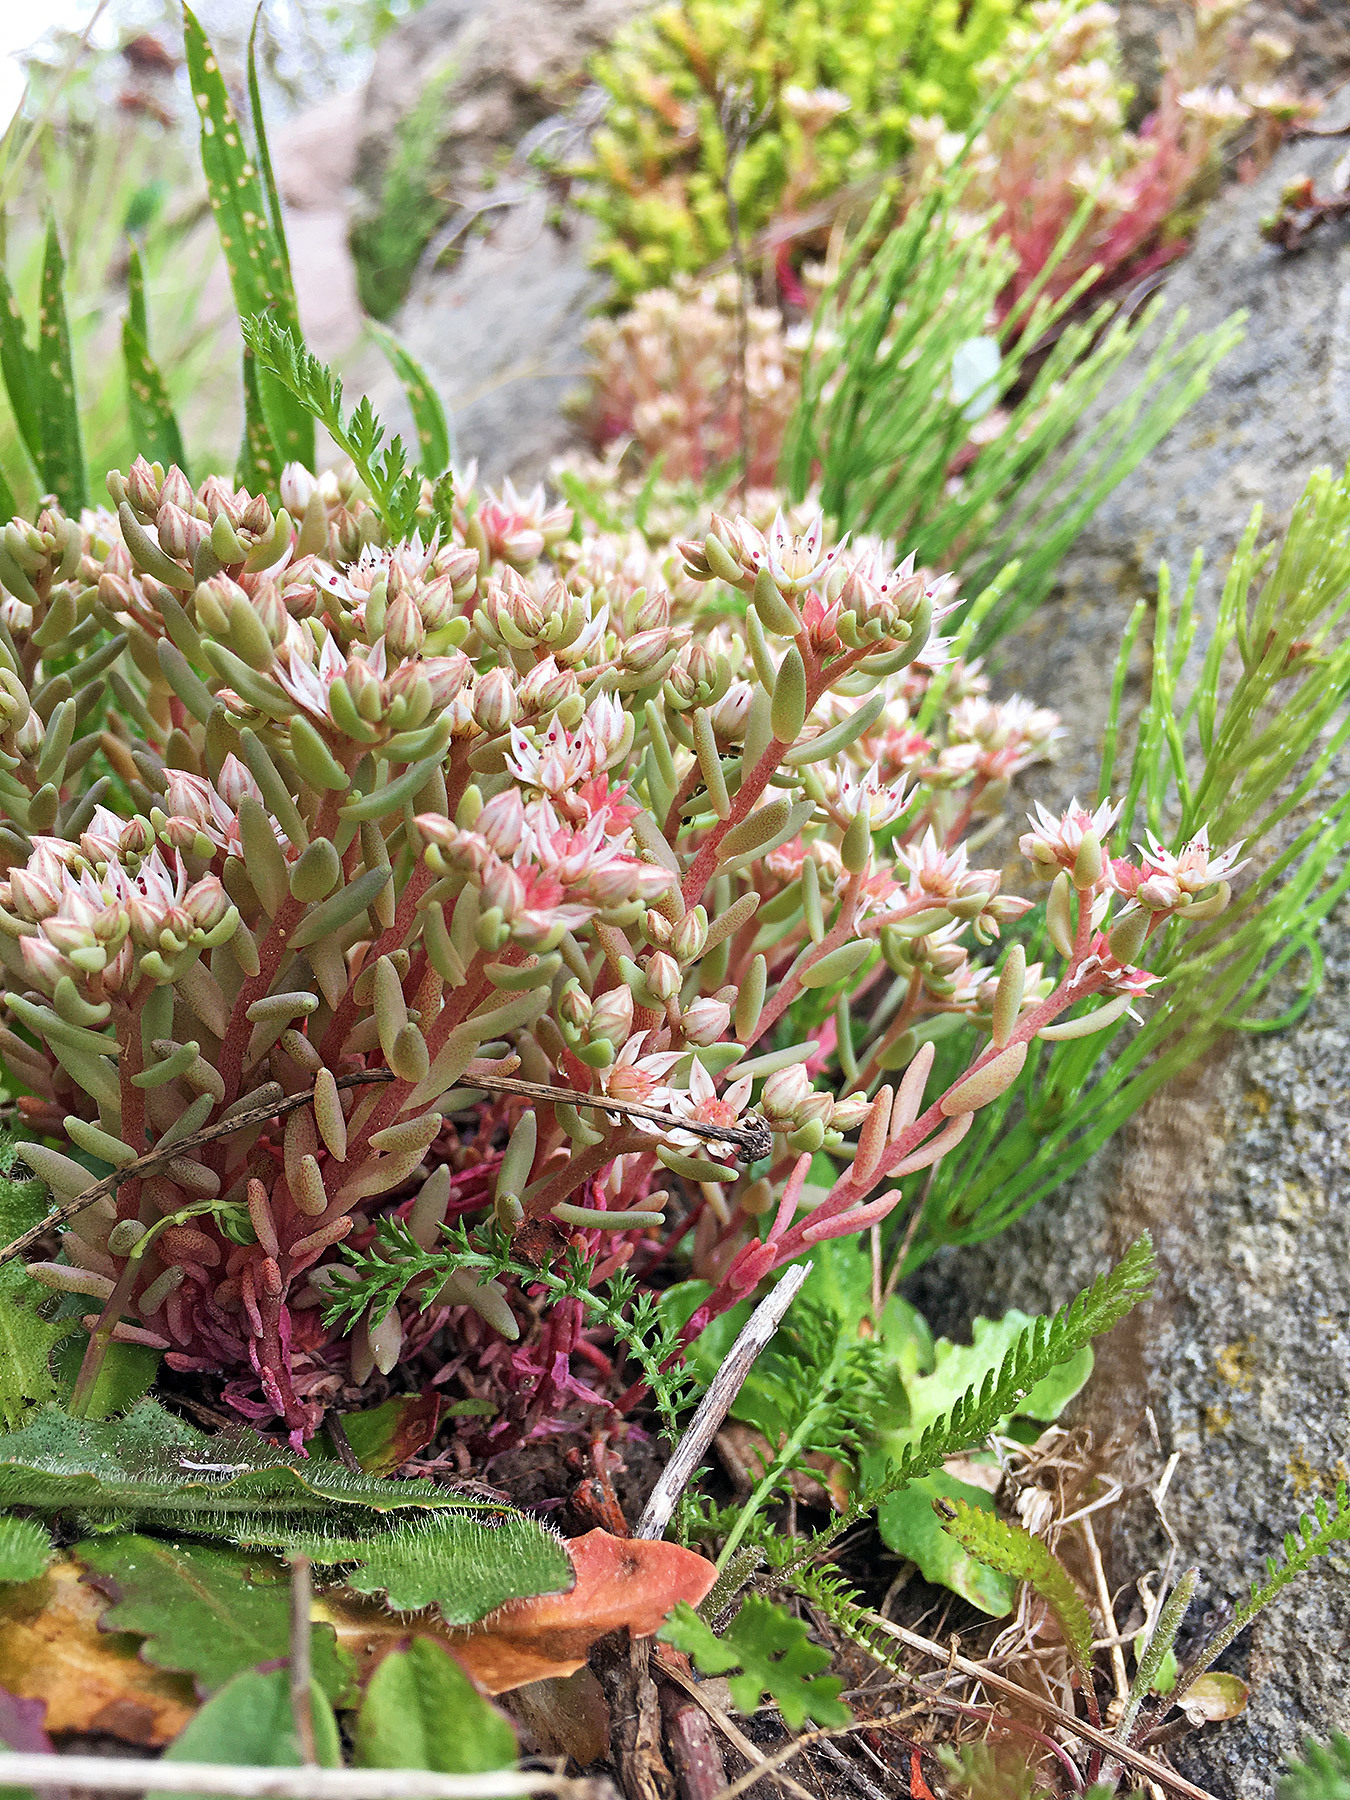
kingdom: Plantae
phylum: Tracheophyta
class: Magnoliopsida
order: Saxifragales
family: Crassulaceae
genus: Sedum
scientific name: Sedum hispanicum
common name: Spanish stonecrop
